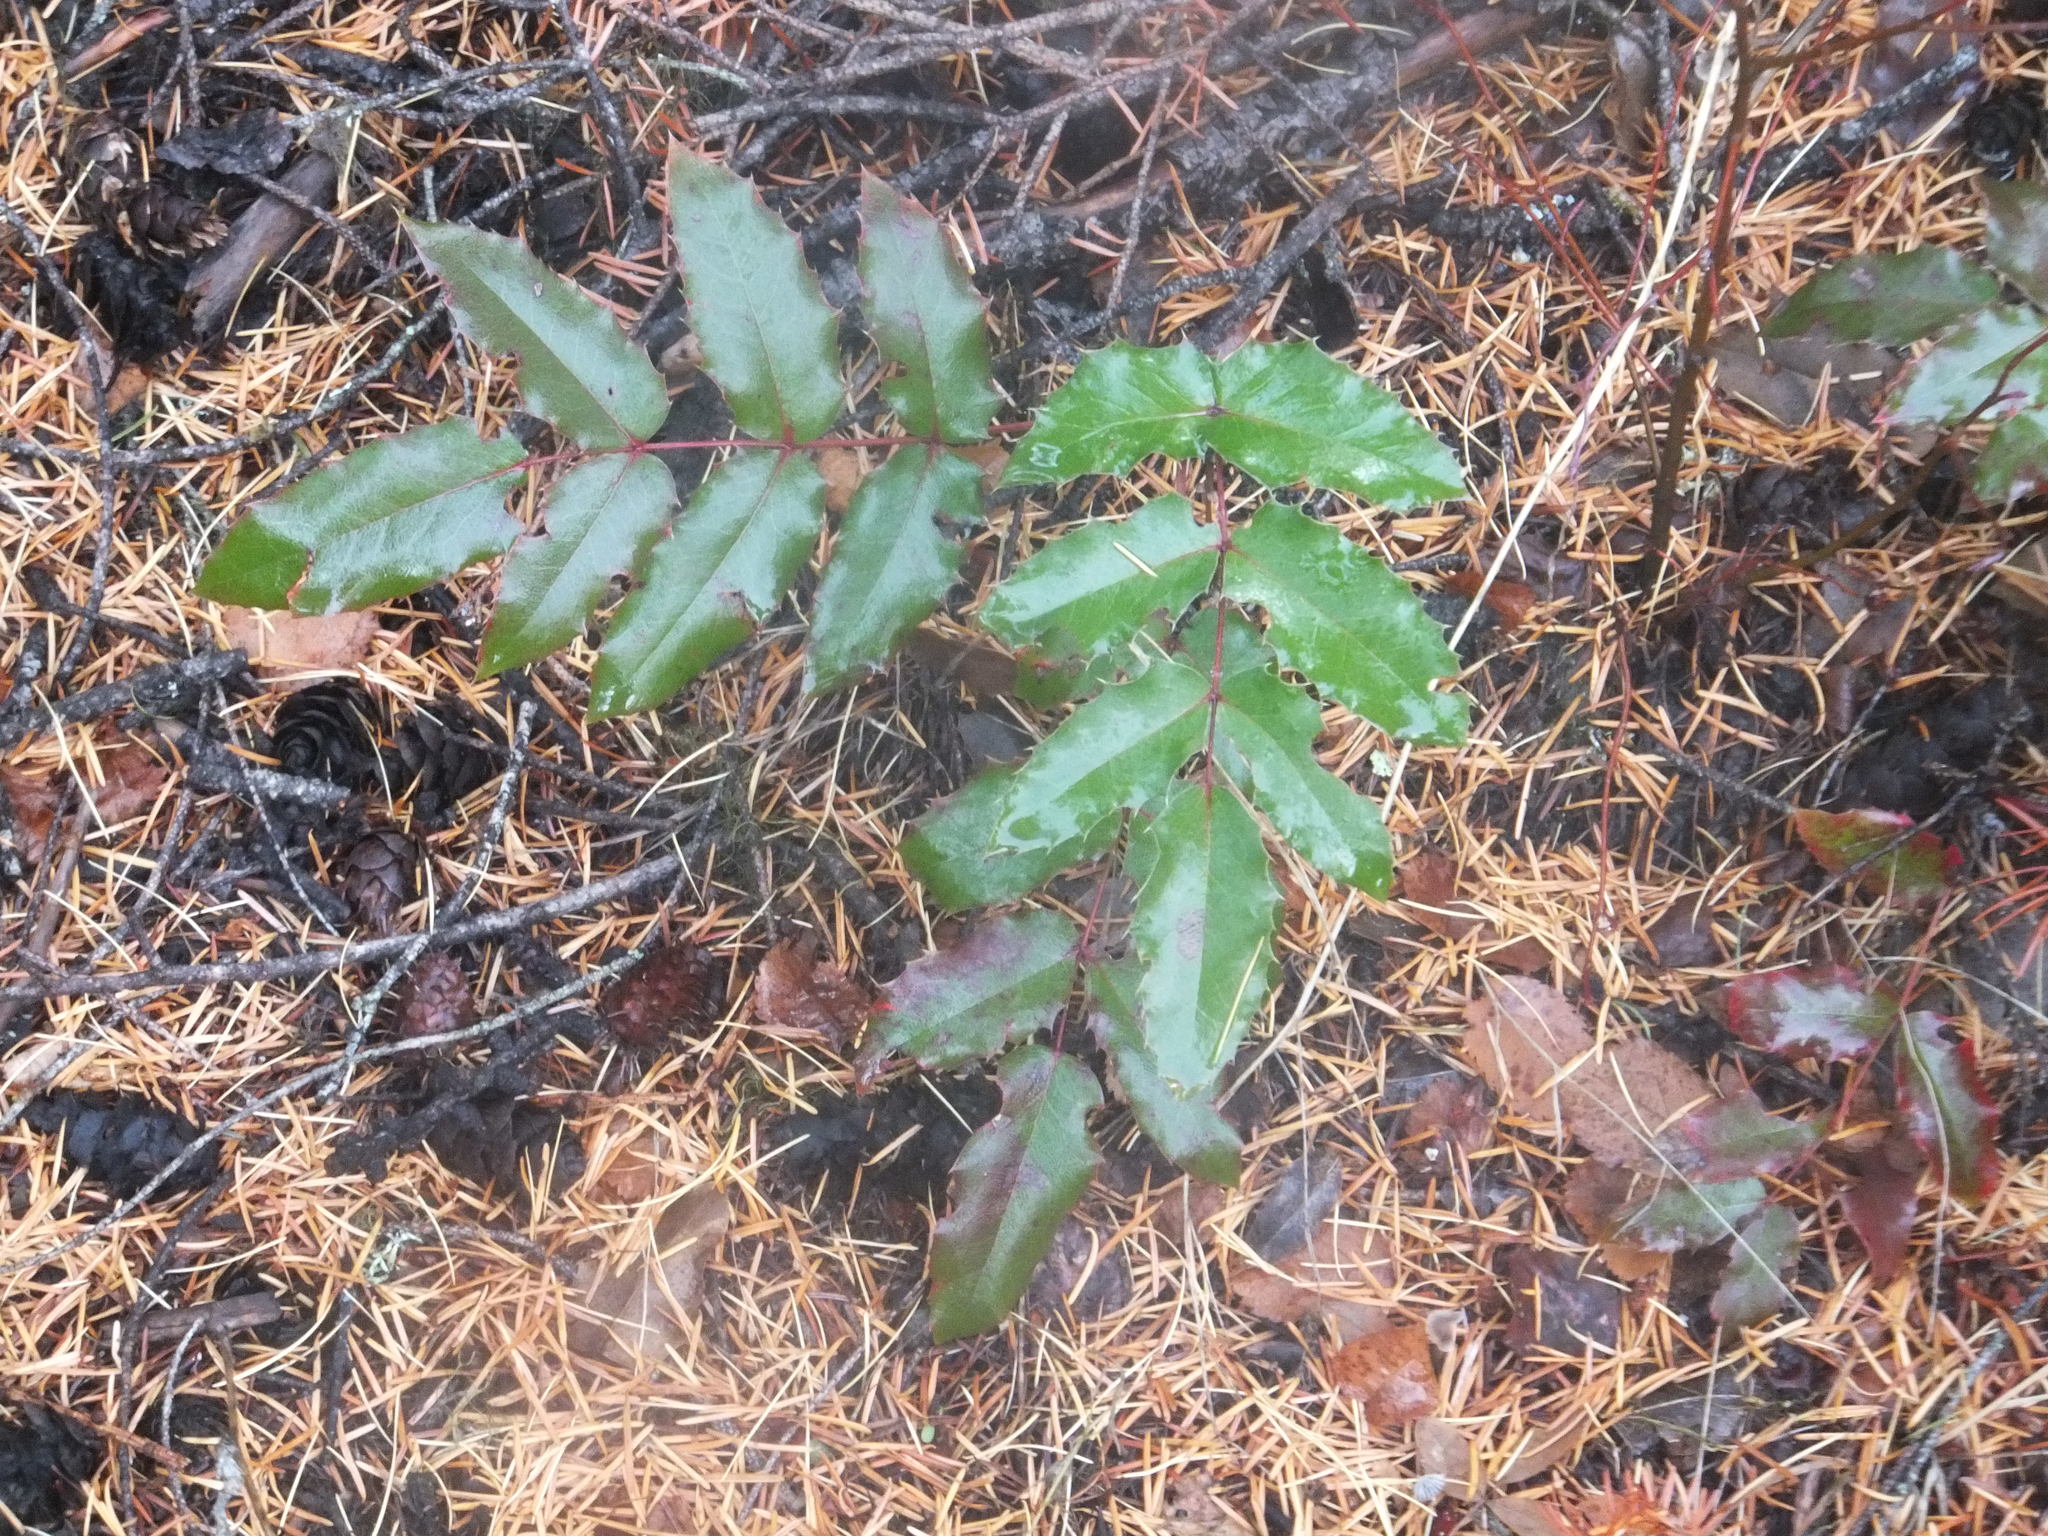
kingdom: Plantae
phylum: Tracheophyta
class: Magnoliopsida
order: Ranunculales
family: Berberidaceae
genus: Mahonia
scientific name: Mahonia aquifolium
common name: Oregon-grape
